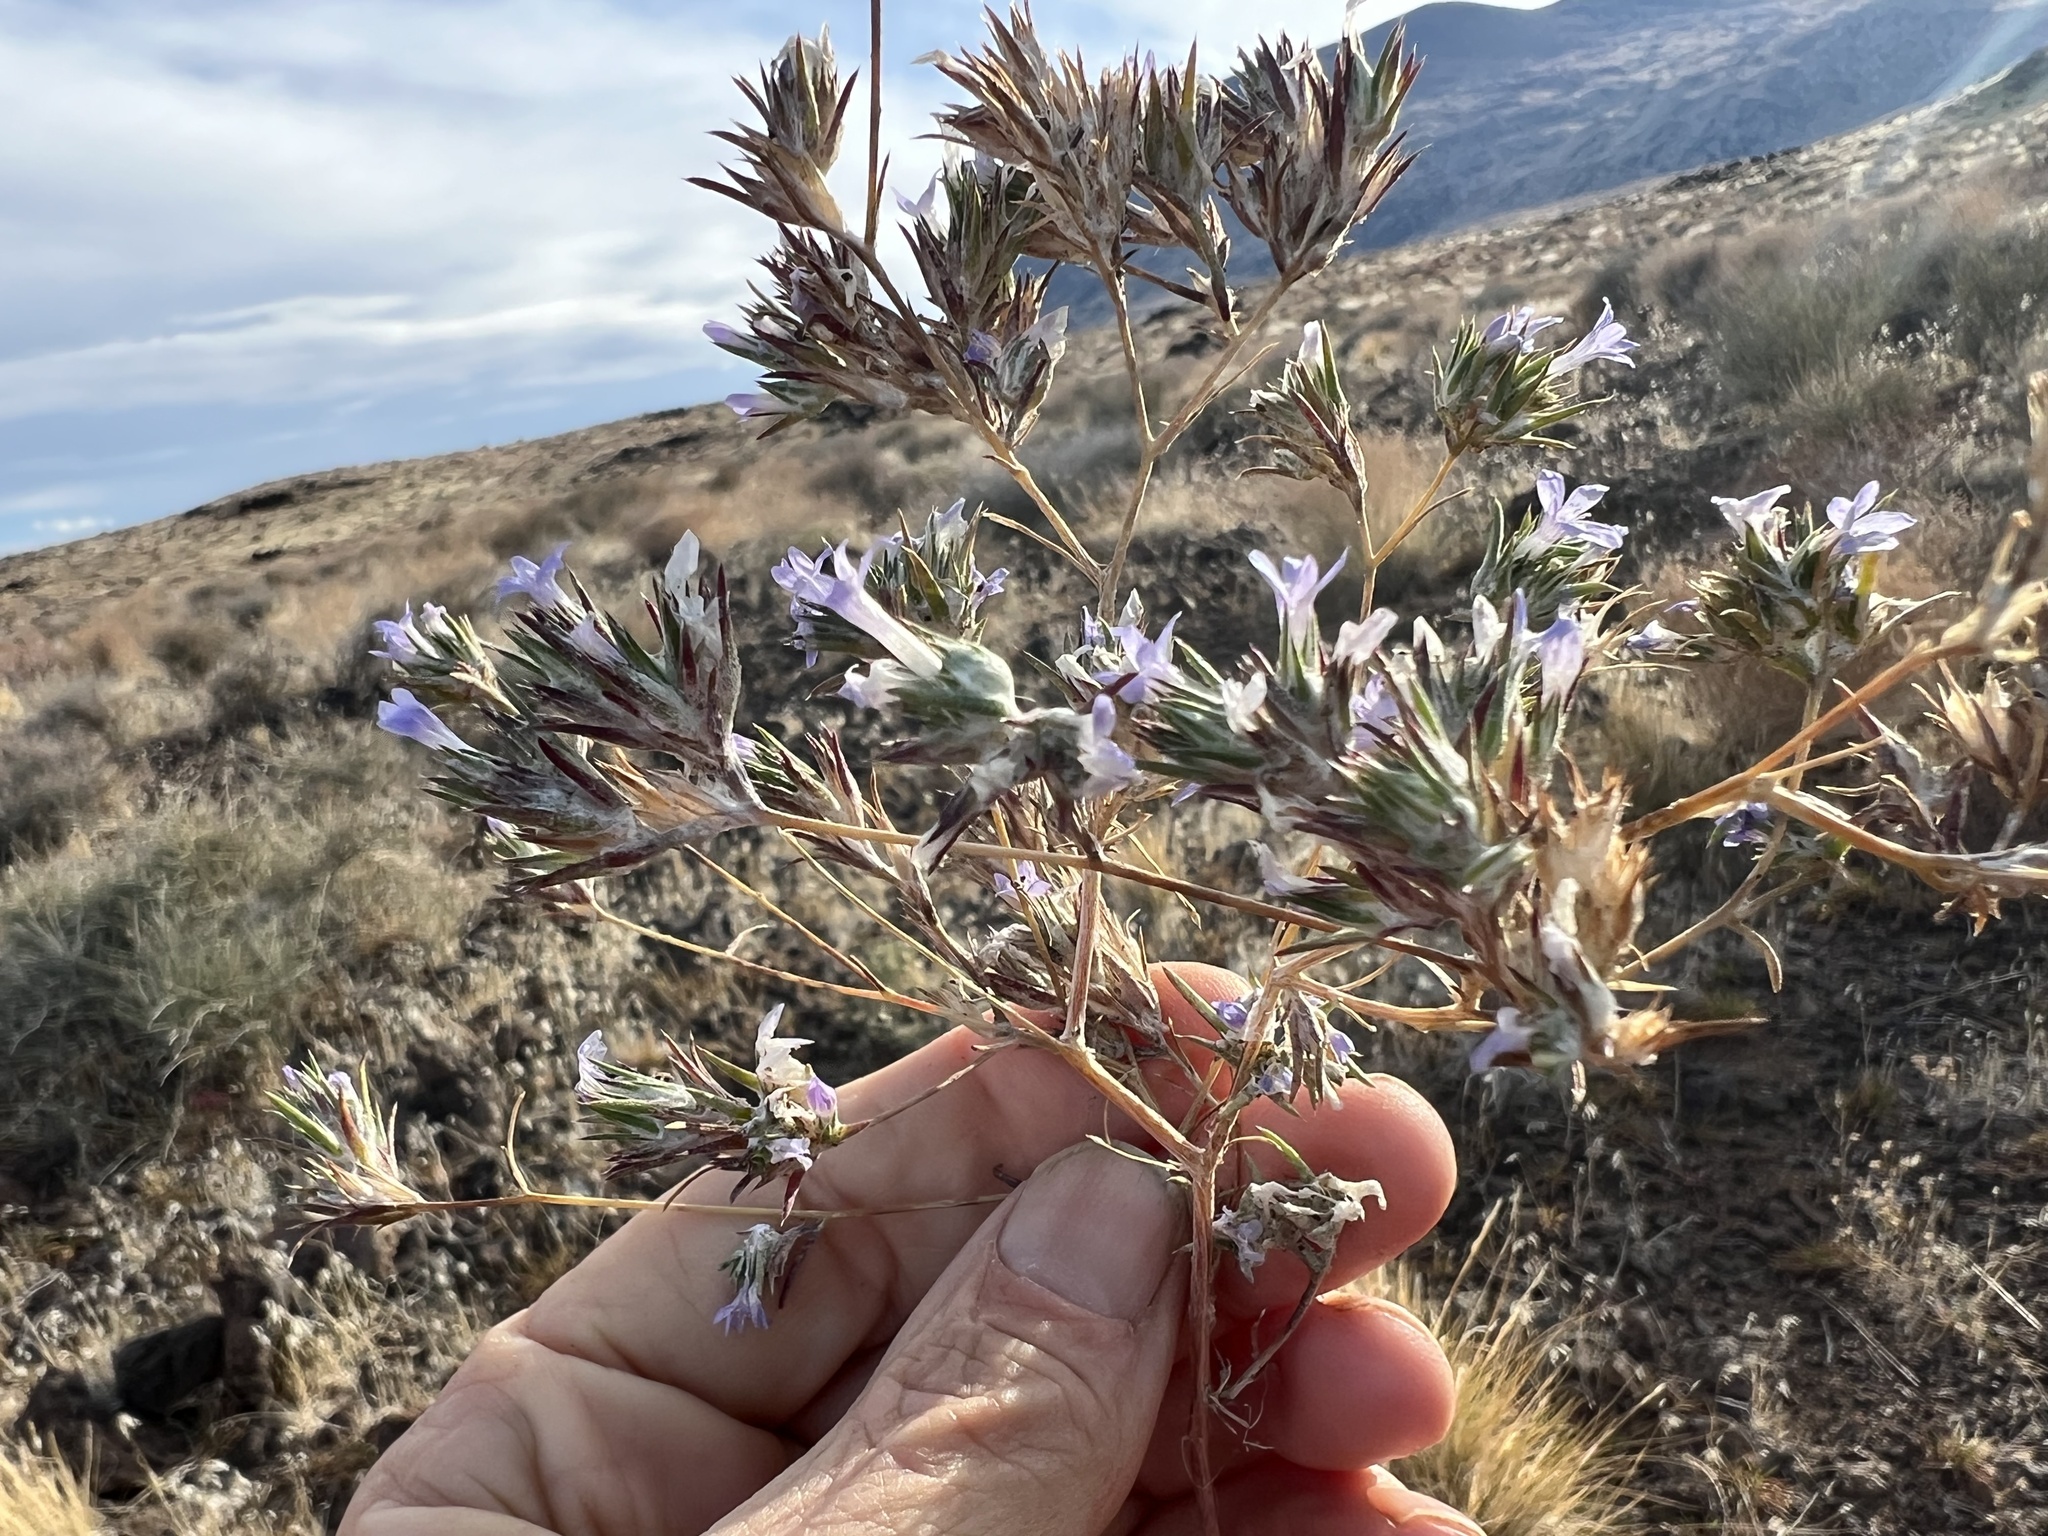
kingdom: Plantae
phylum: Tracheophyta
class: Magnoliopsida
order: Ericales
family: Polemoniaceae
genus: Eriastrum
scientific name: Eriastrum wilcoxii
